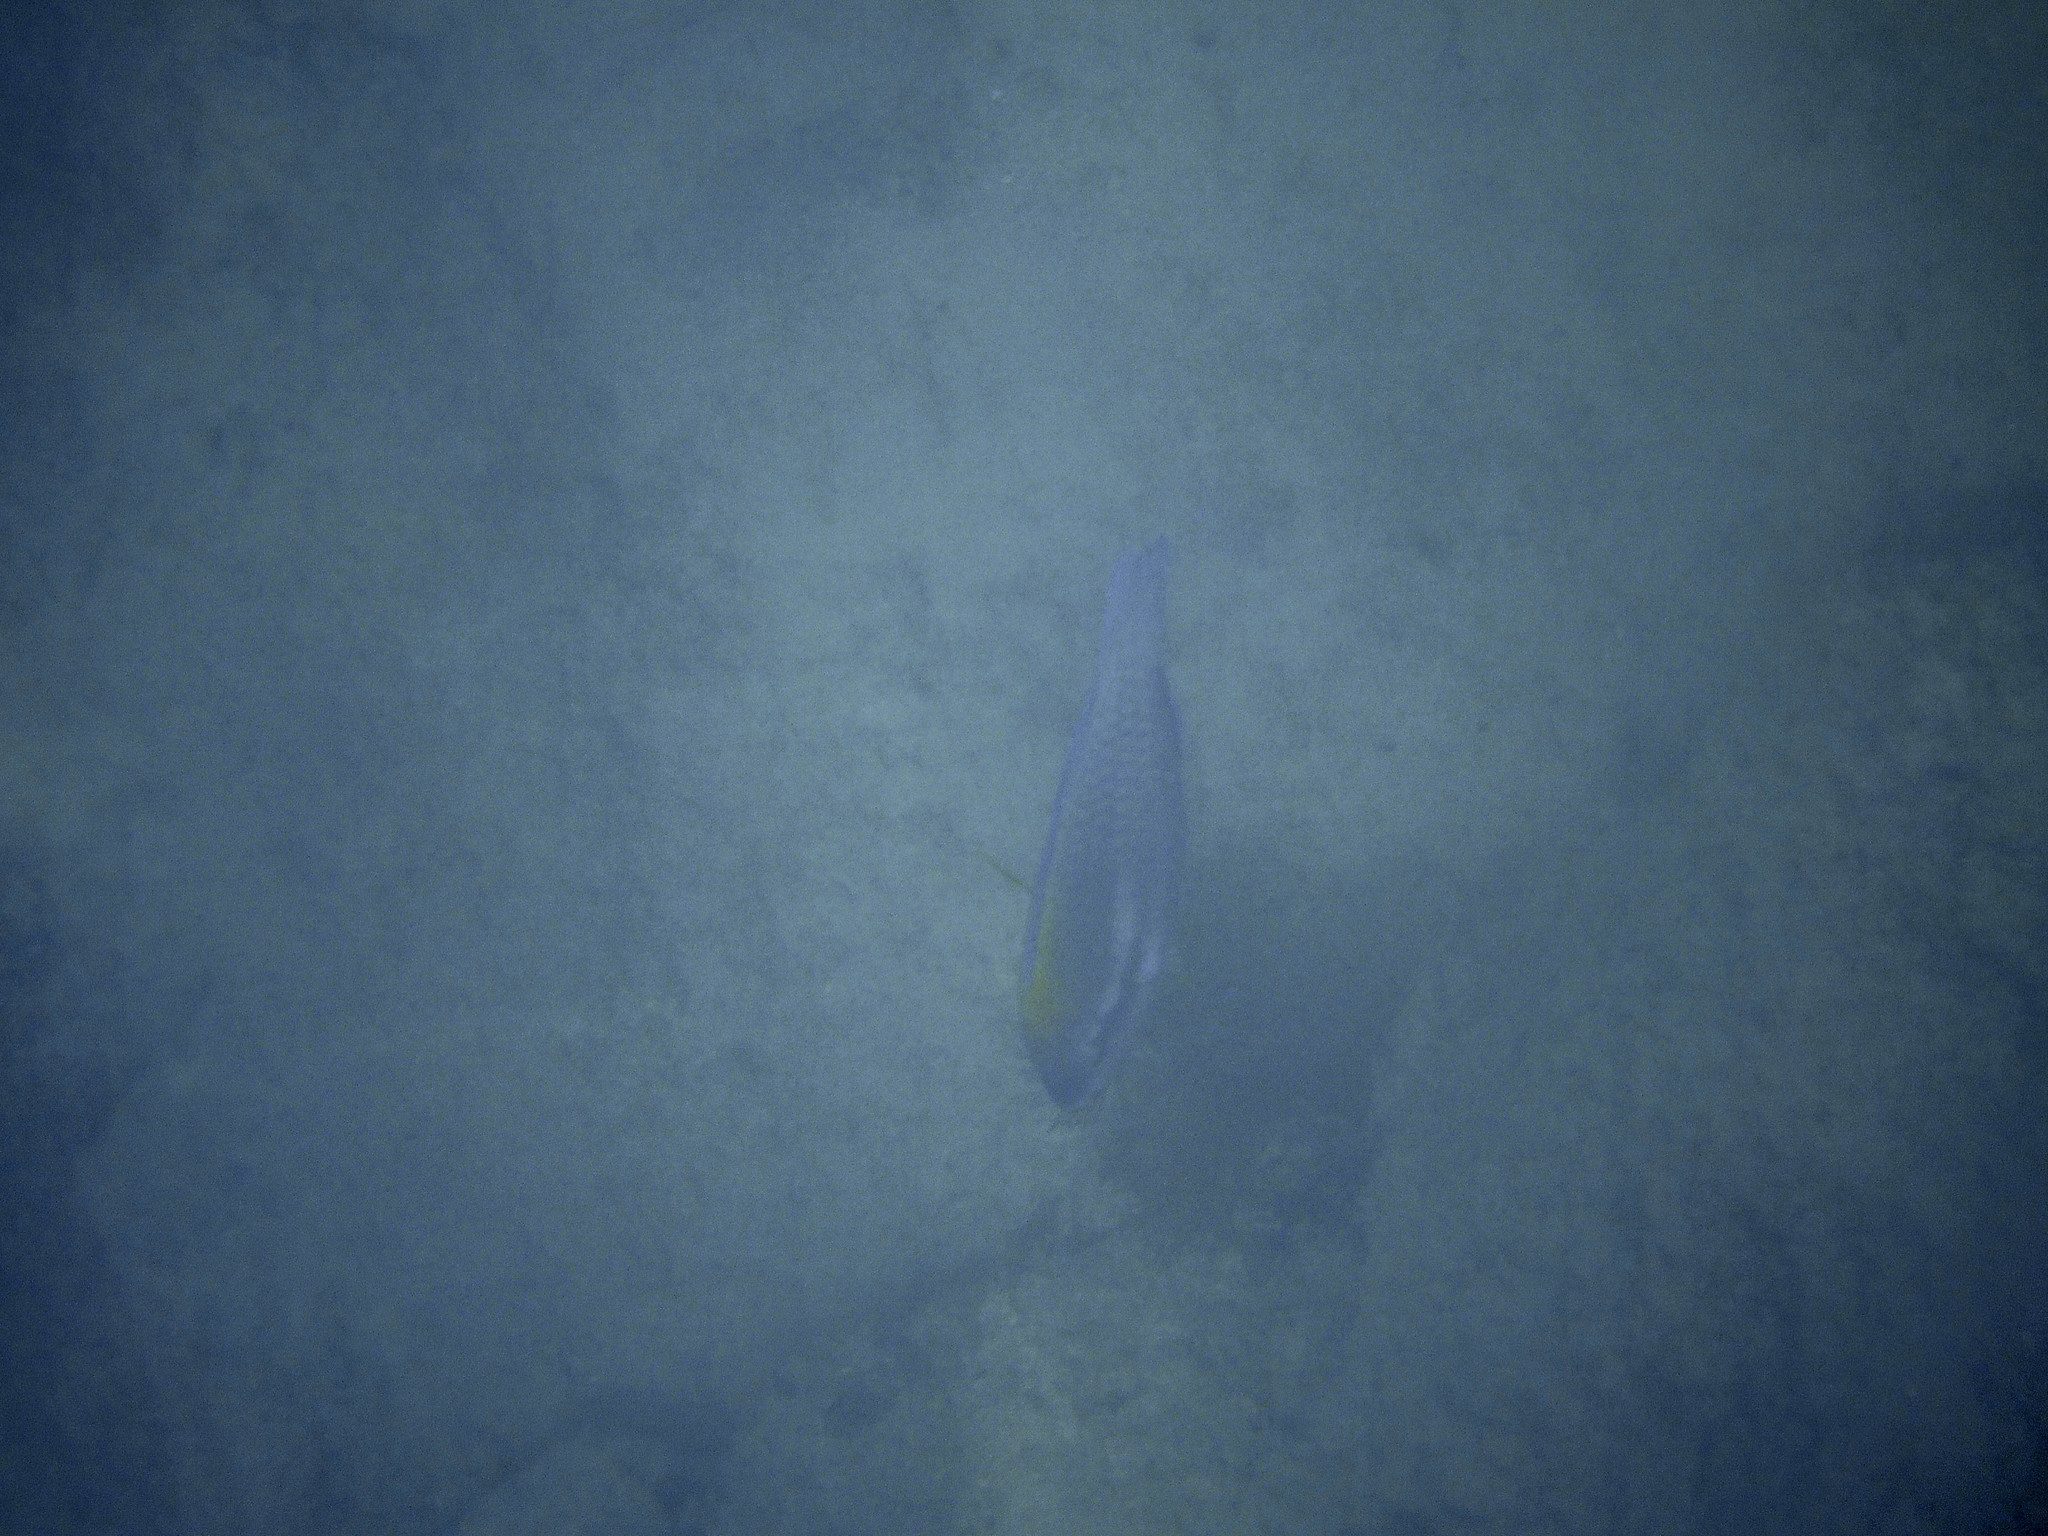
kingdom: Animalia
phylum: Chordata
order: Perciformes
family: Scaridae
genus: Scarus
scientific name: Scarus iseri
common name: Striped parrotfish
